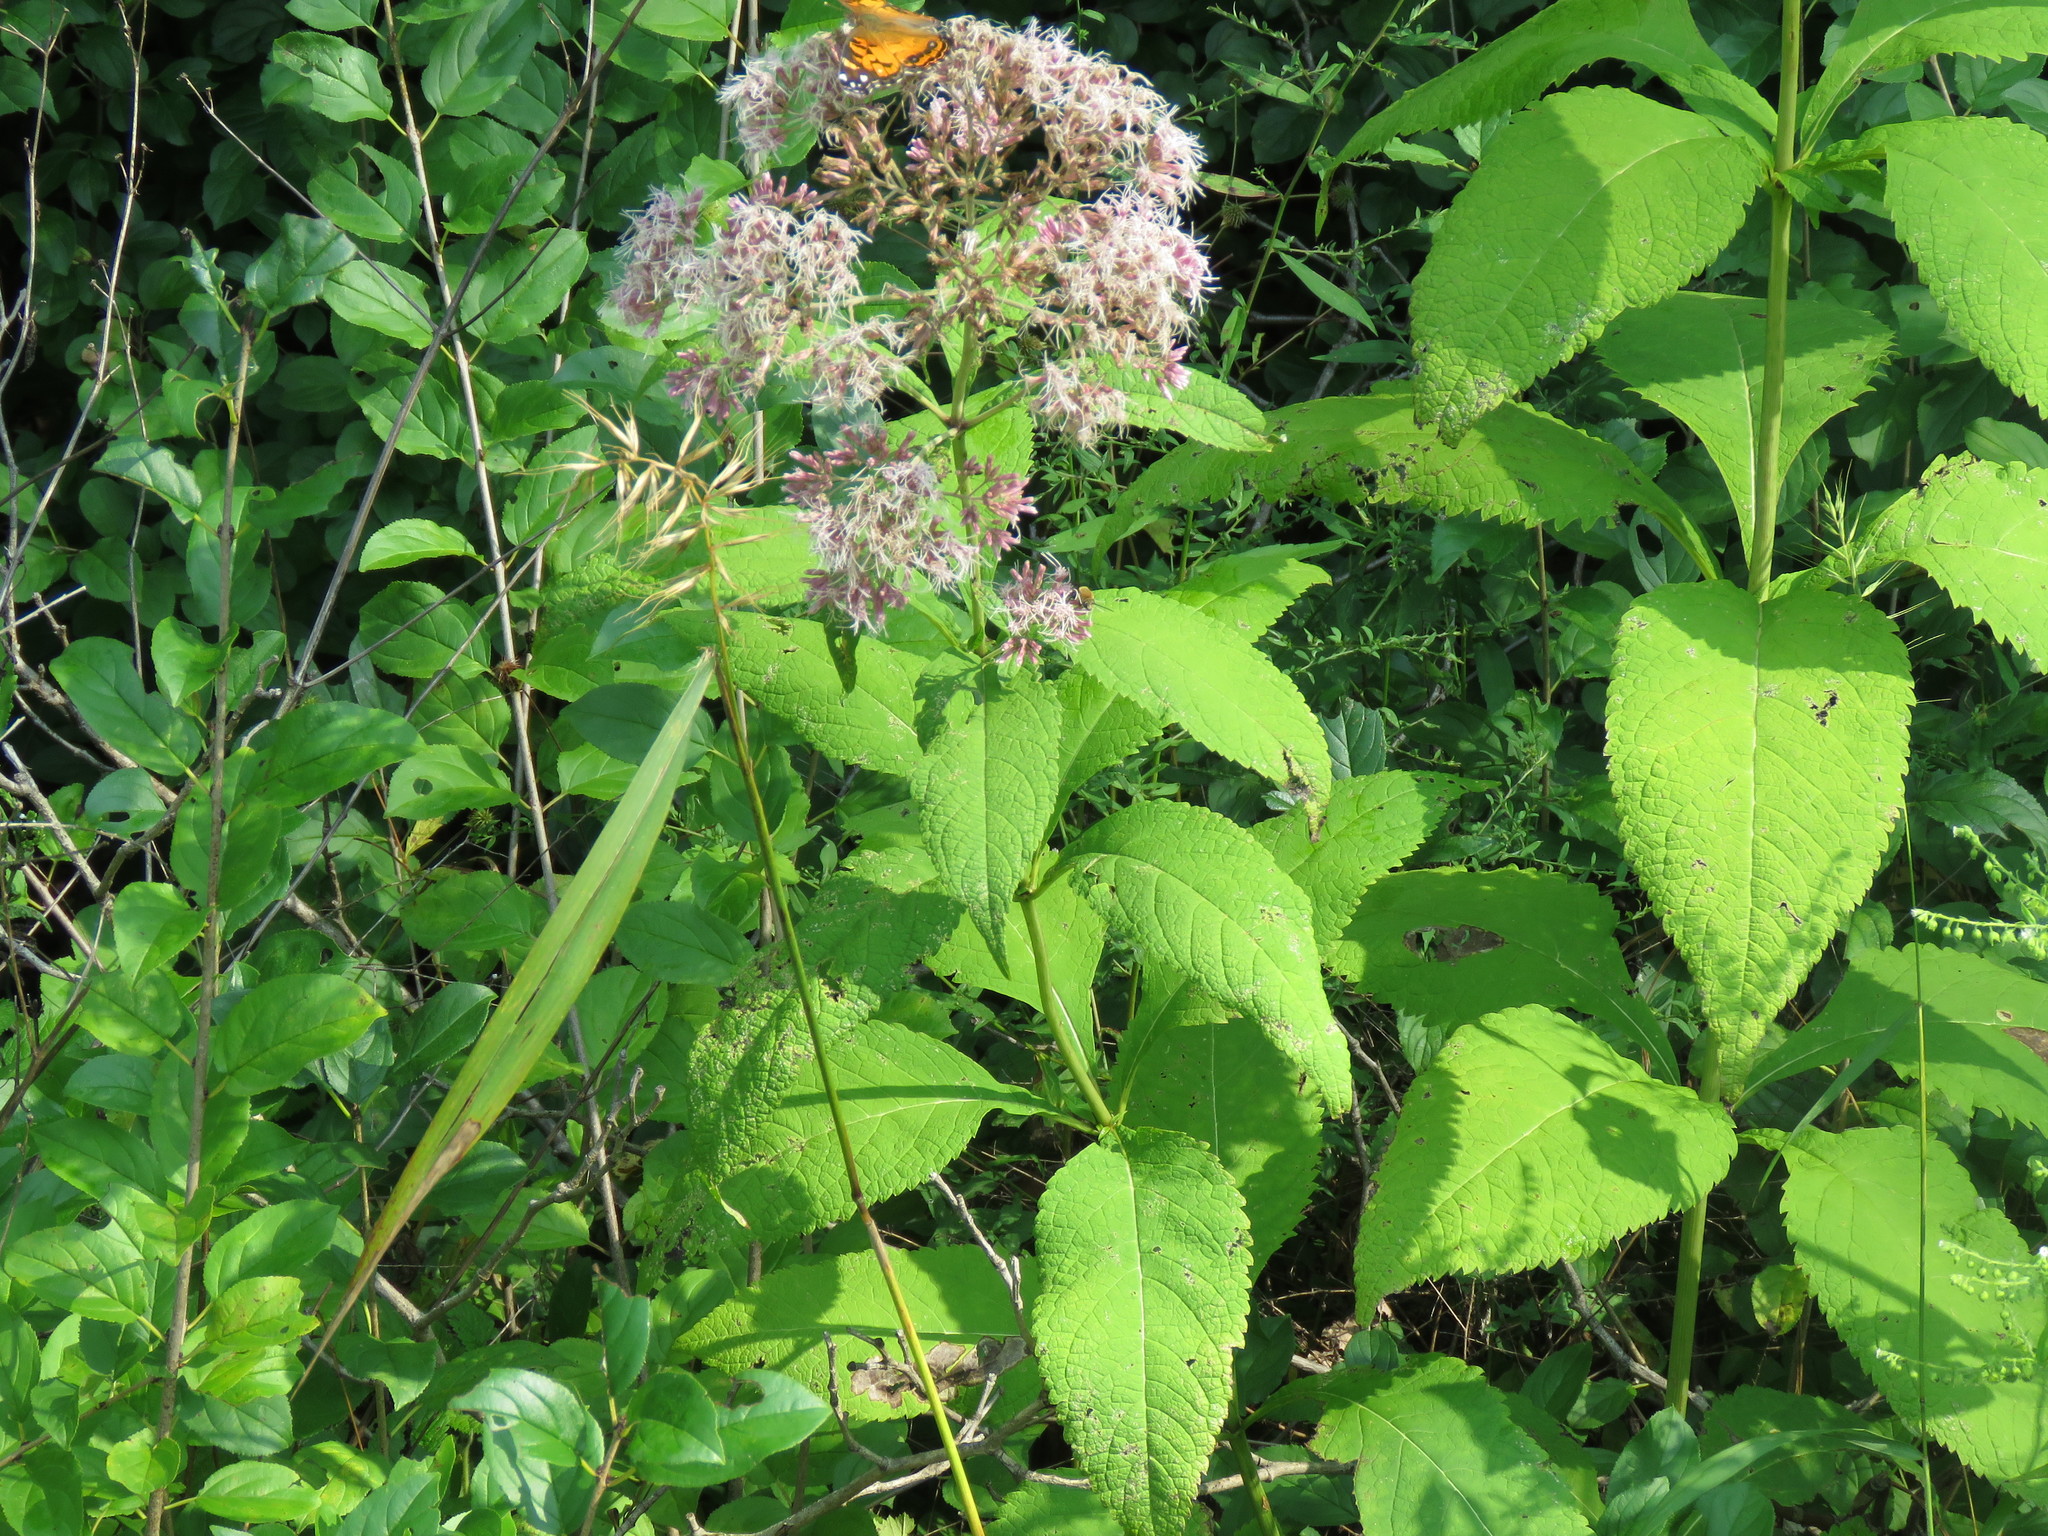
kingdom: Plantae
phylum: Tracheophyta
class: Magnoliopsida
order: Asterales
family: Asteraceae
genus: Eutrochium
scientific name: Eutrochium maculatum
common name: Spotted joe pye weed
